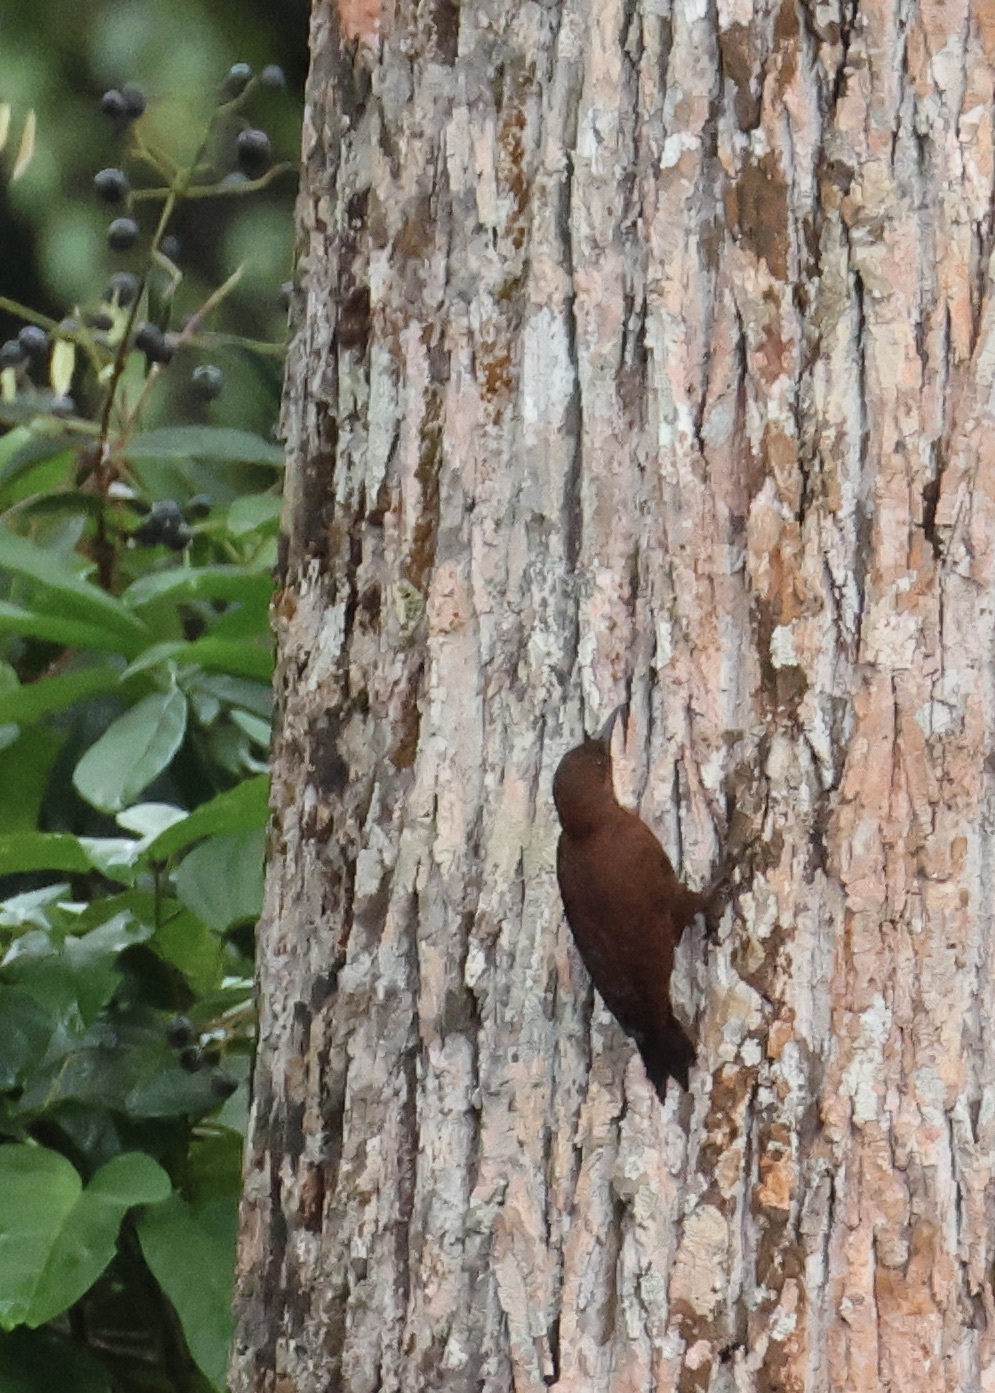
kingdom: Animalia
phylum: Chordata
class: Aves
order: Piciformes
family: Picidae
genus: Micropternus
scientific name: Micropternus brachyurus
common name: Rufous woodpecker
